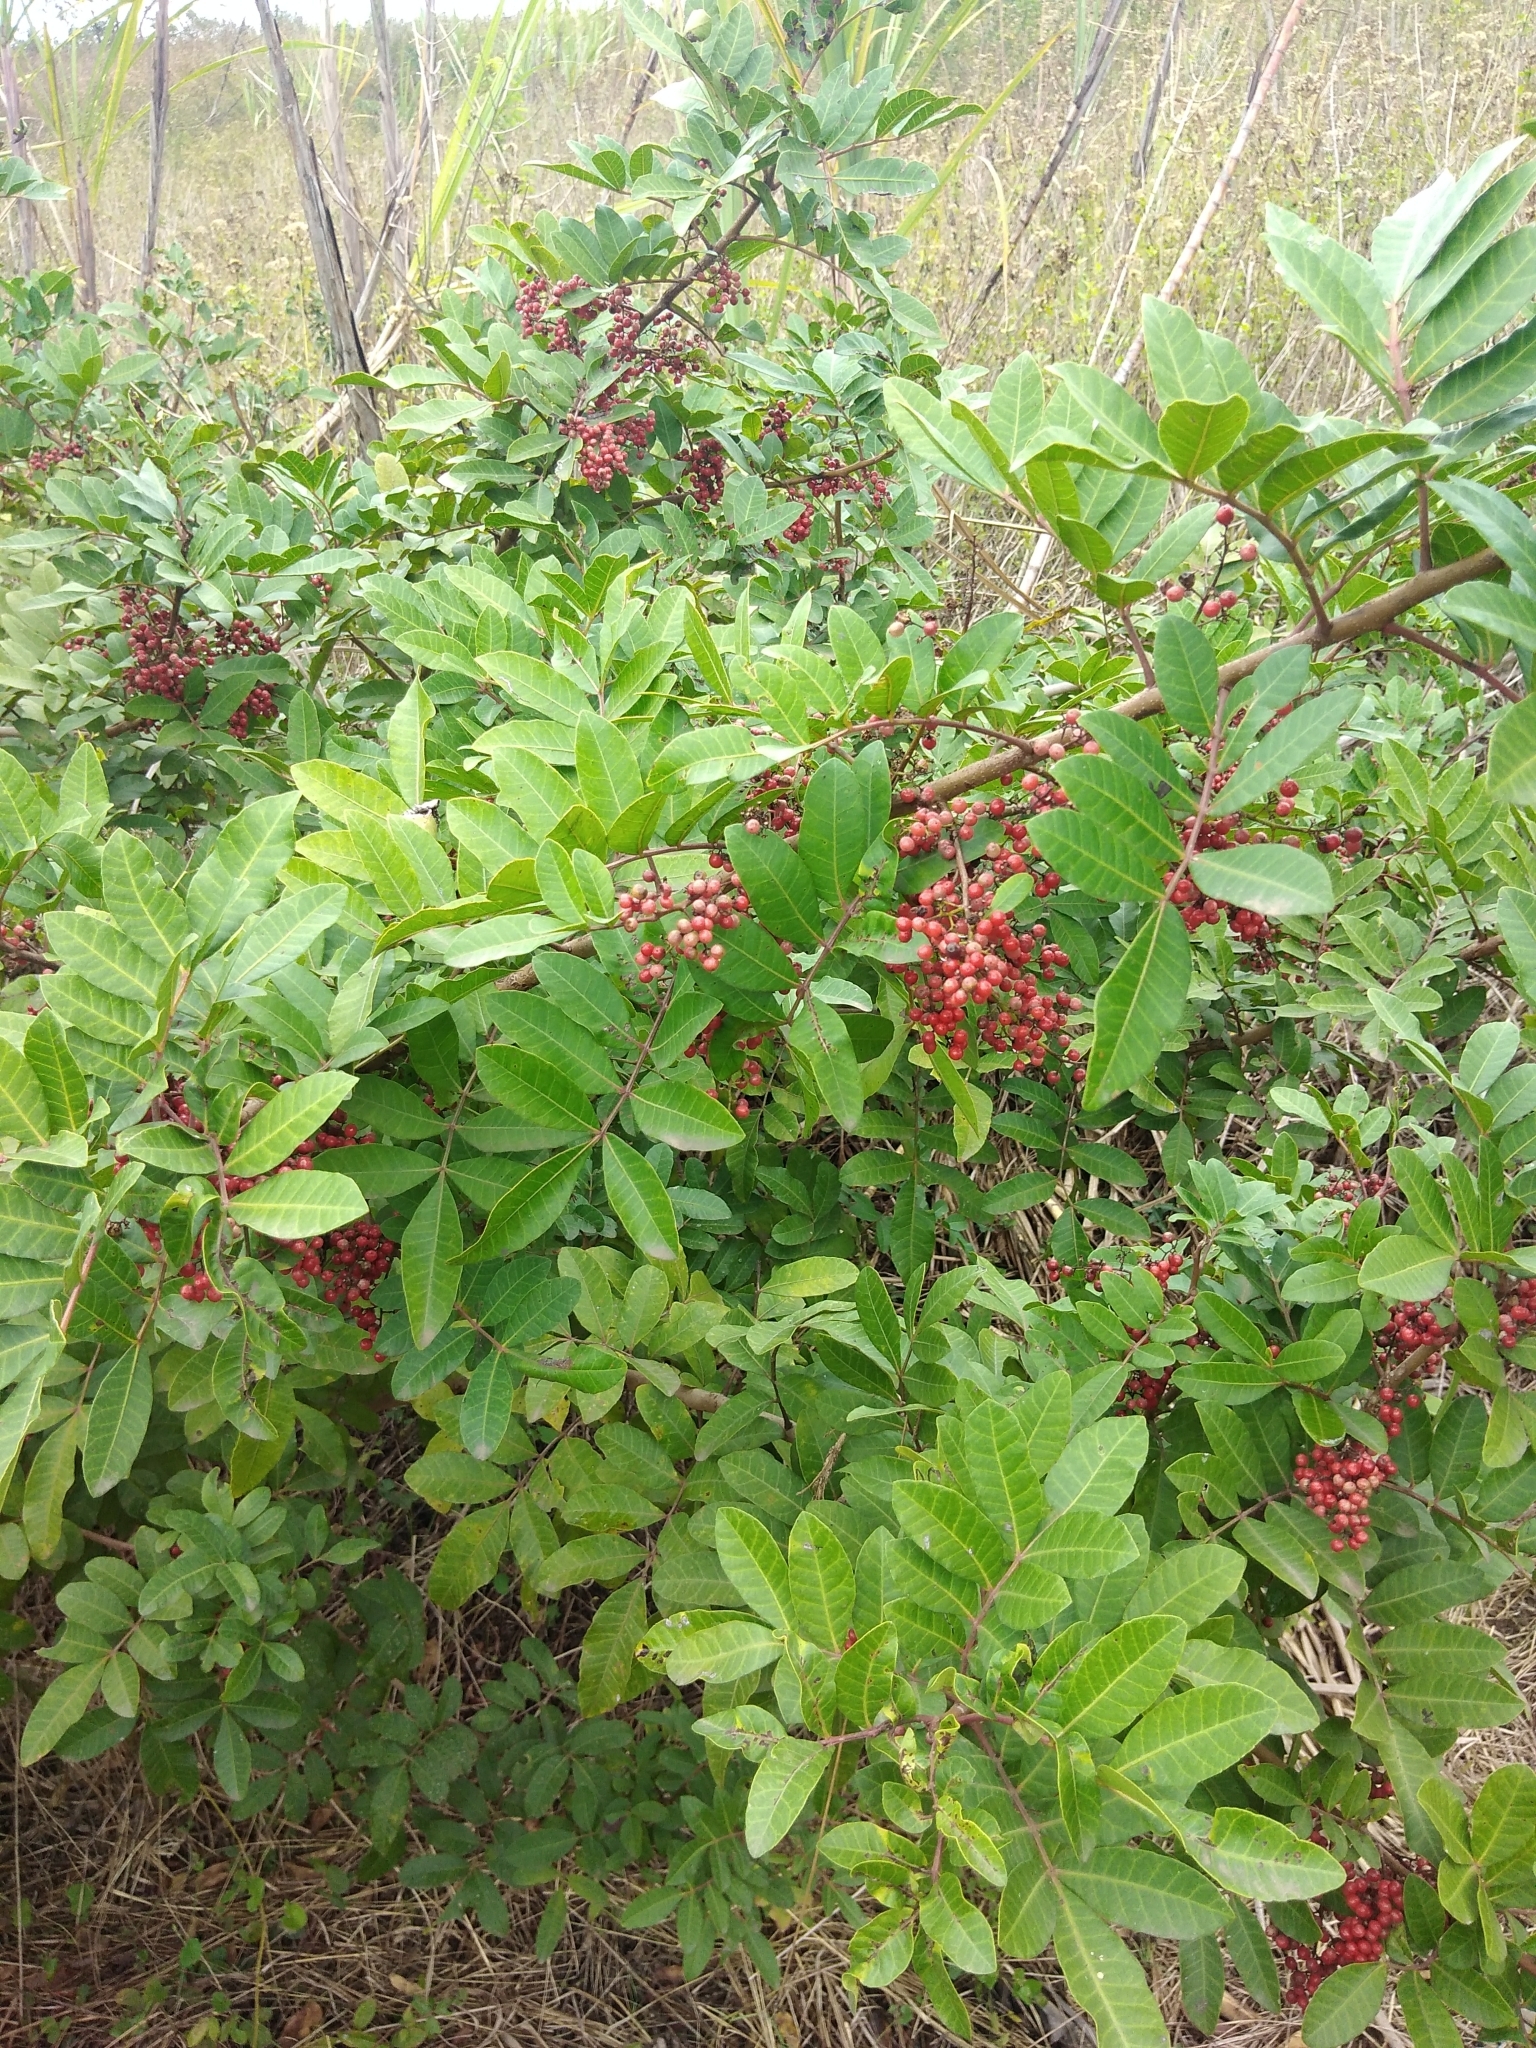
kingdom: Plantae
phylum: Tracheophyta
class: Magnoliopsida
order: Sapindales
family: Anacardiaceae
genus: Schinus
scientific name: Schinus terebinthifolia
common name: Brazilian peppertree
